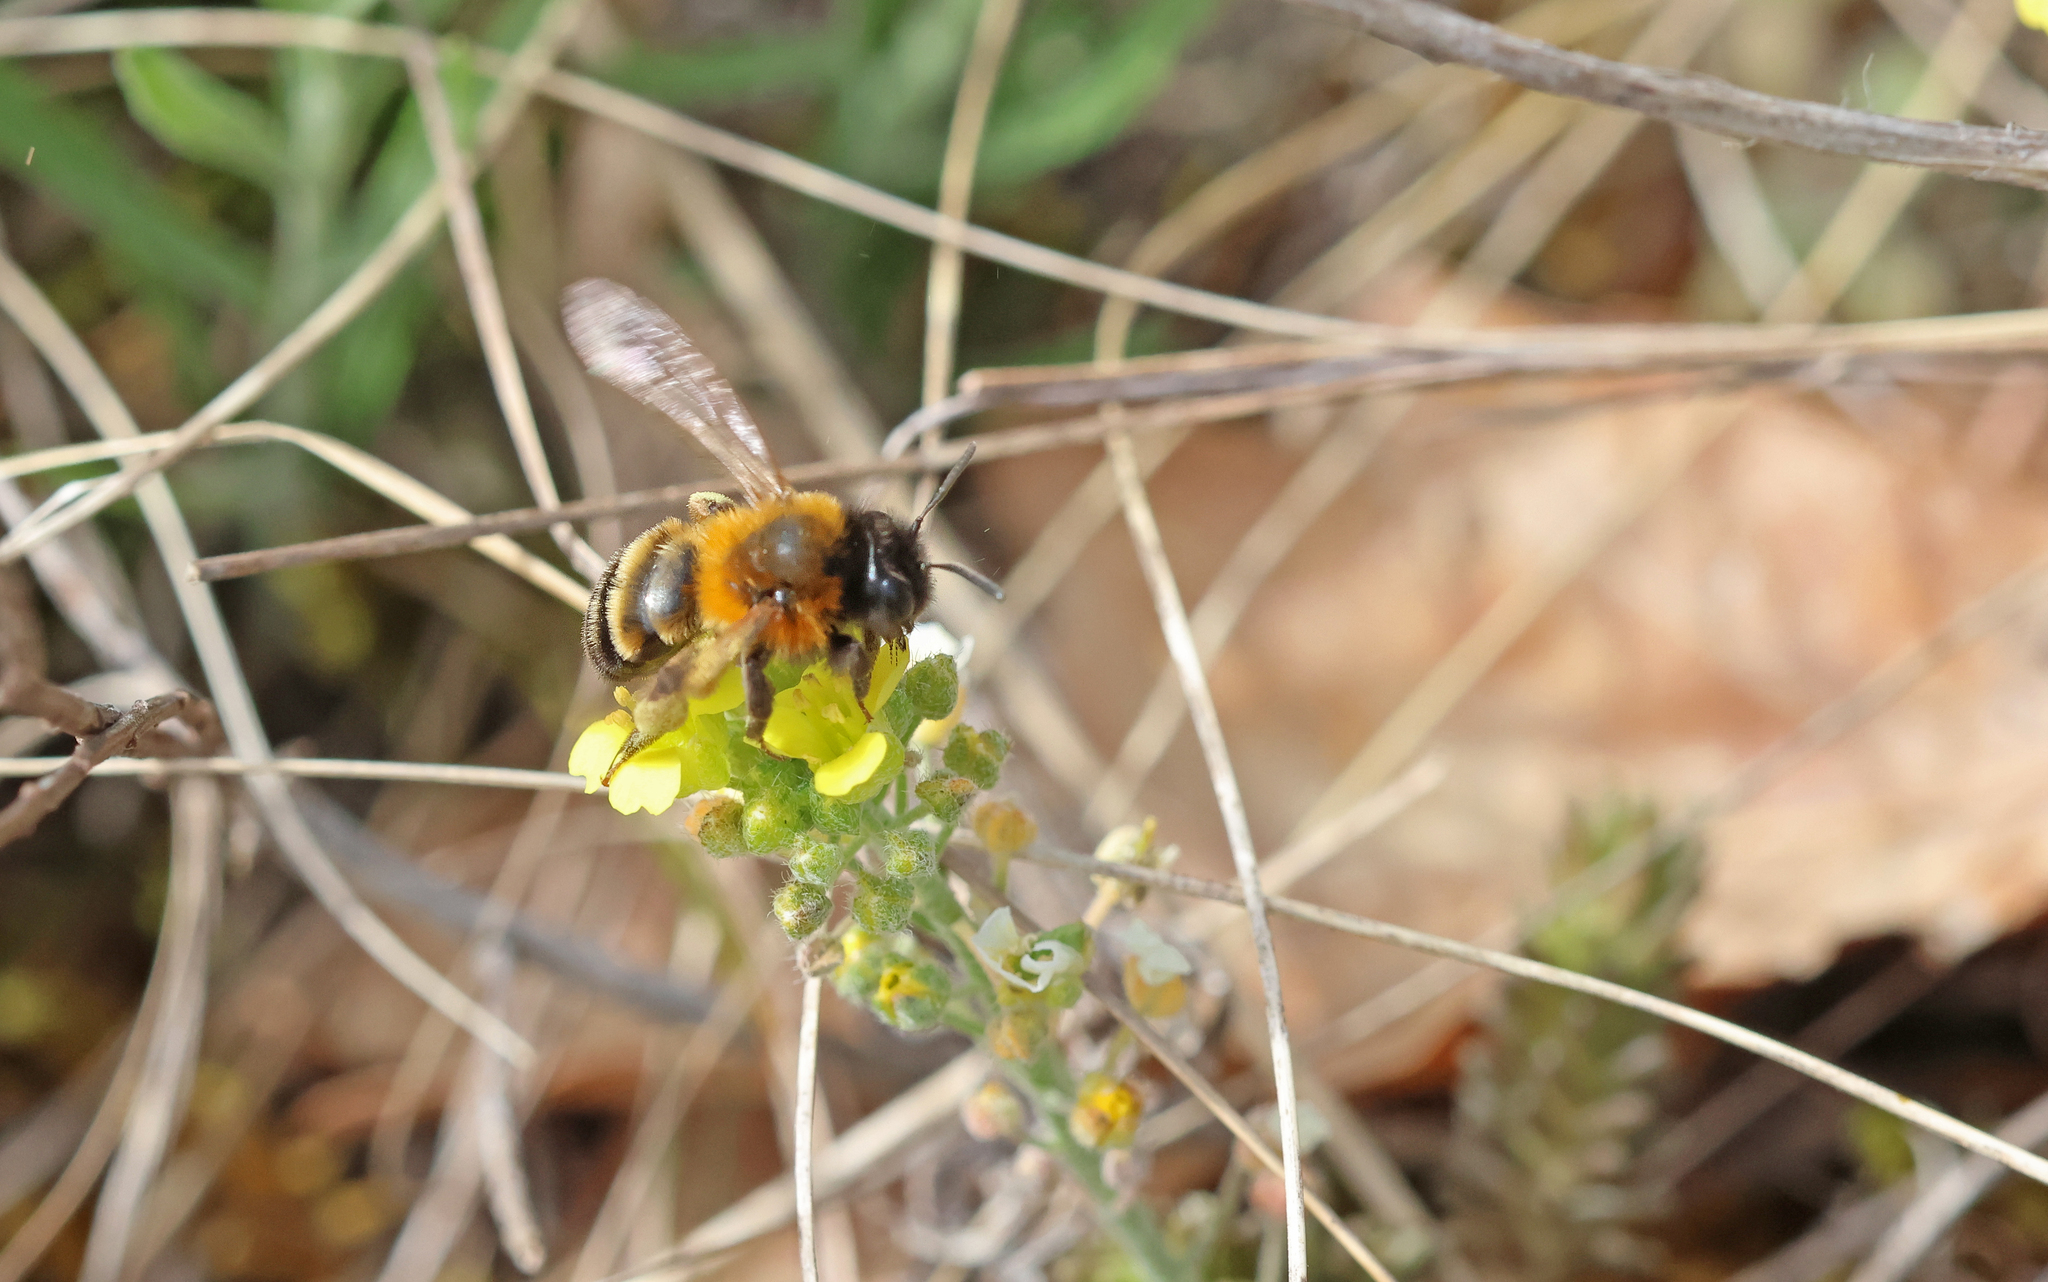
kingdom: Animalia
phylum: Arthropoda
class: Insecta
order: Hymenoptera
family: Andrenidae
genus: Andrena
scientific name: Andrena tscheki
